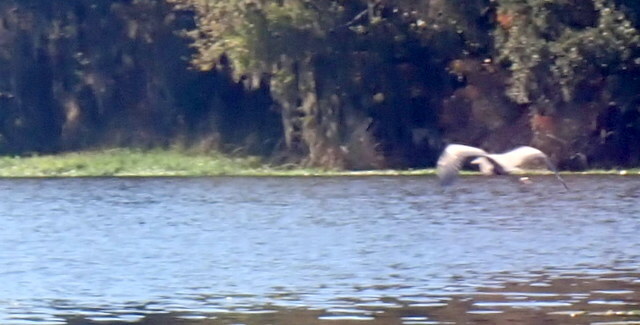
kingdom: Animalia
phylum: Chordata
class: Aves
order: Pelecaniformes
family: Ardeidae
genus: Ardea
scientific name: Ardea herodias
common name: Great blue heron
